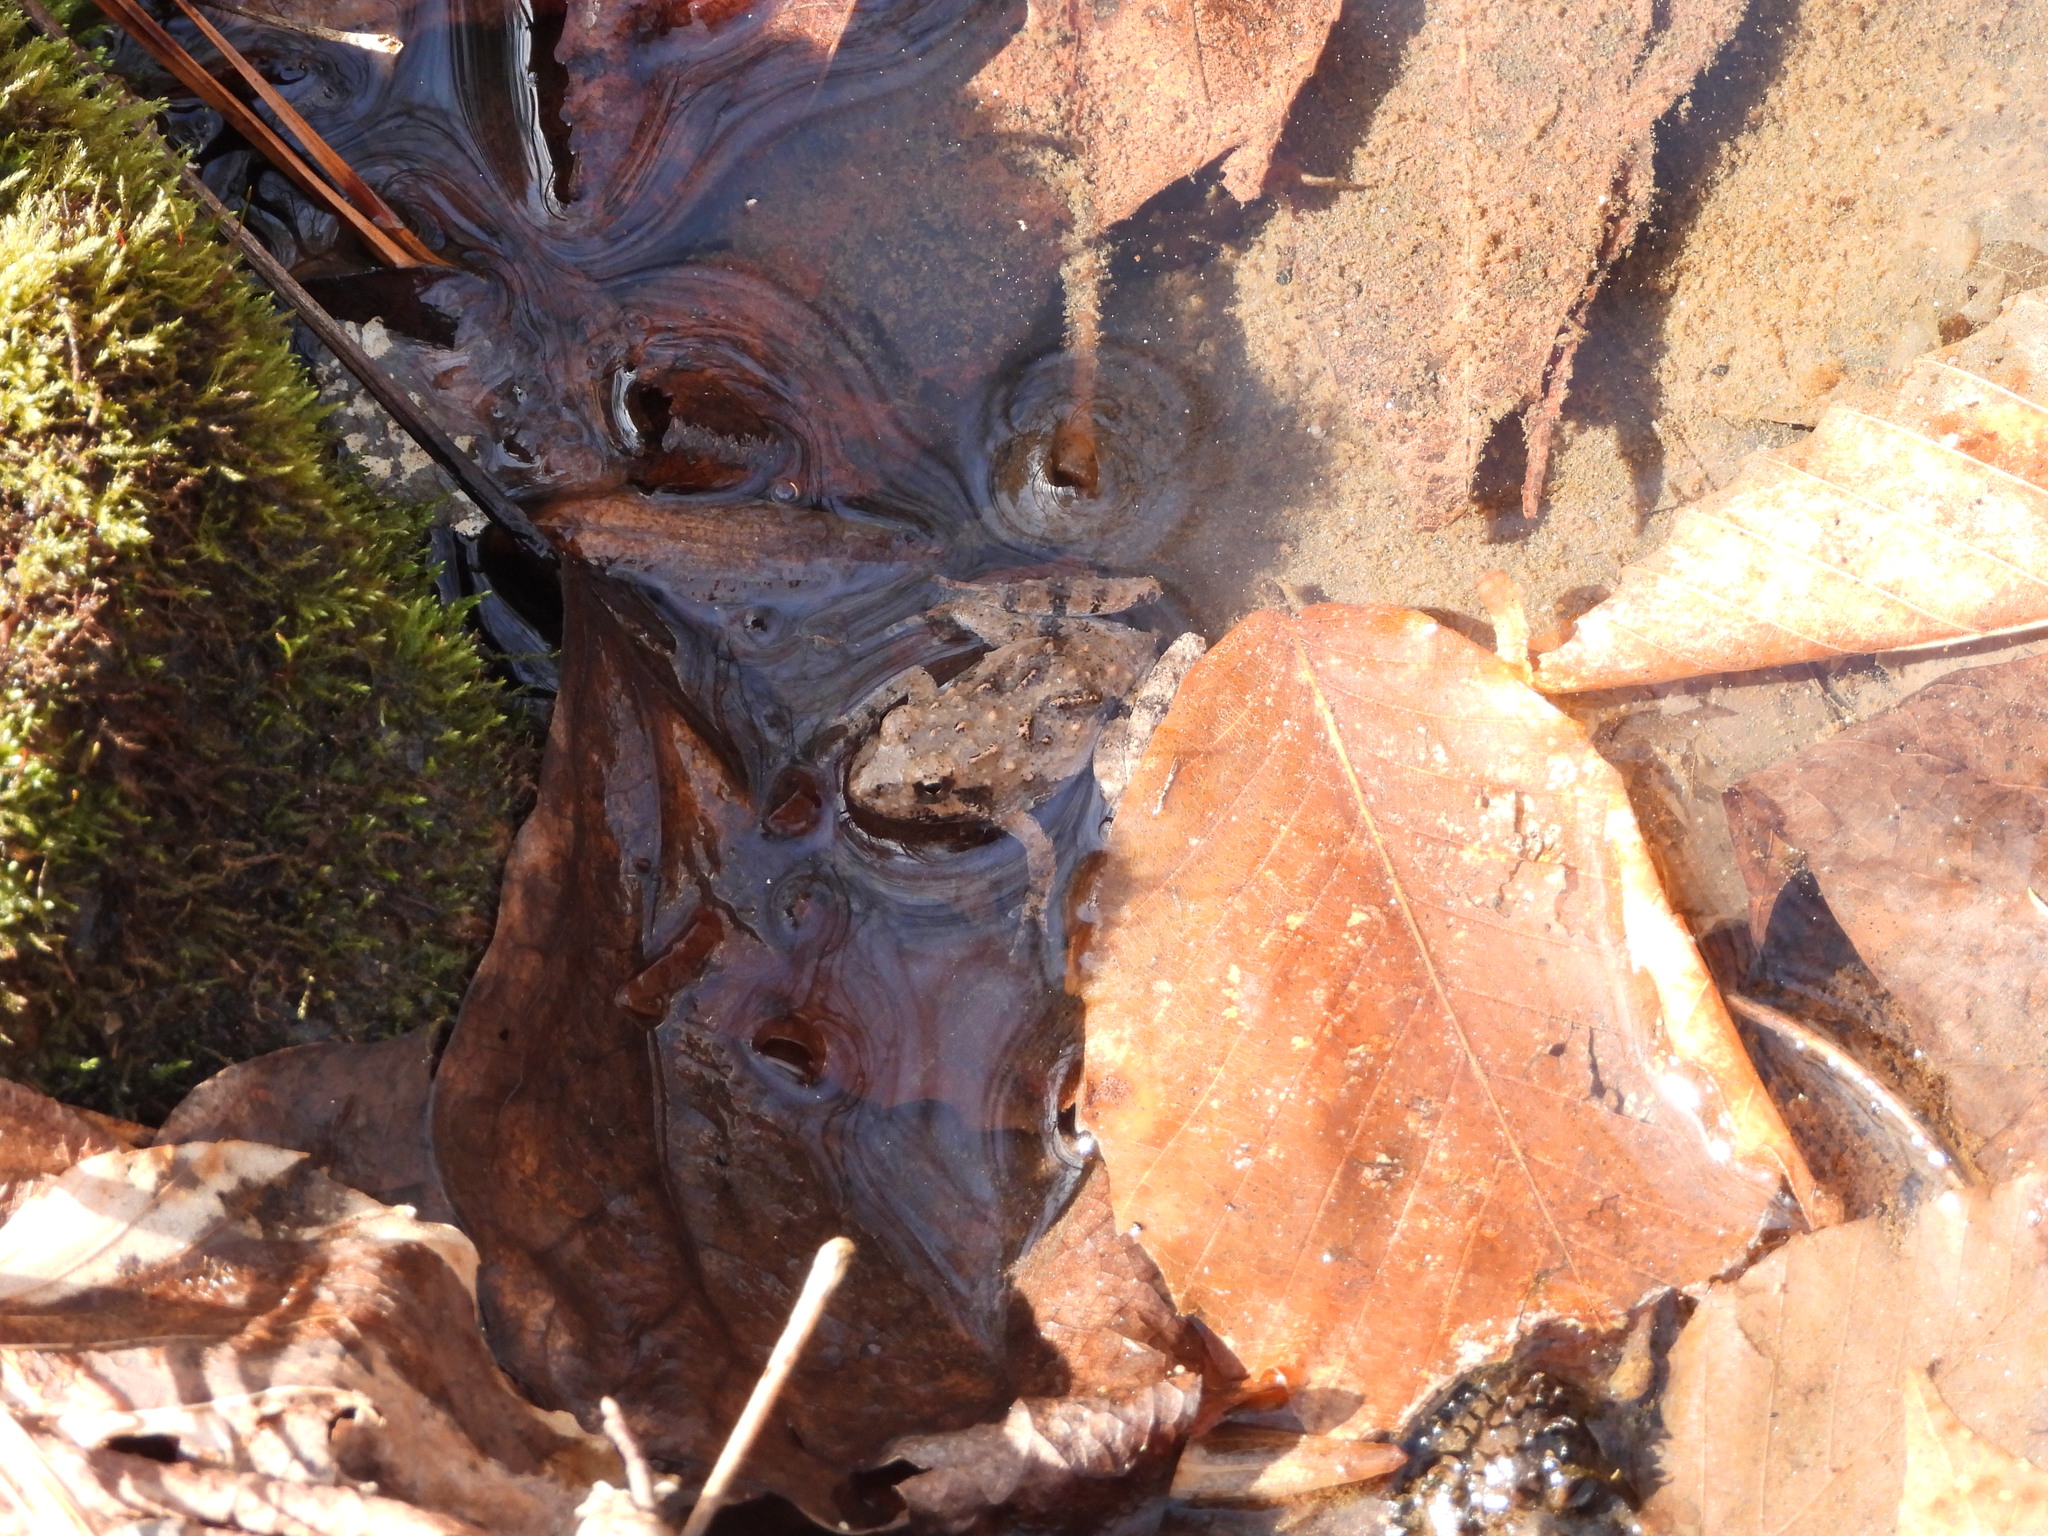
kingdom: Animalia
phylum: Chordata
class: Amphibia
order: Anura
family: Hylidae
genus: Acris
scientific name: Acris crepitans
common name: Northern cricket frog
